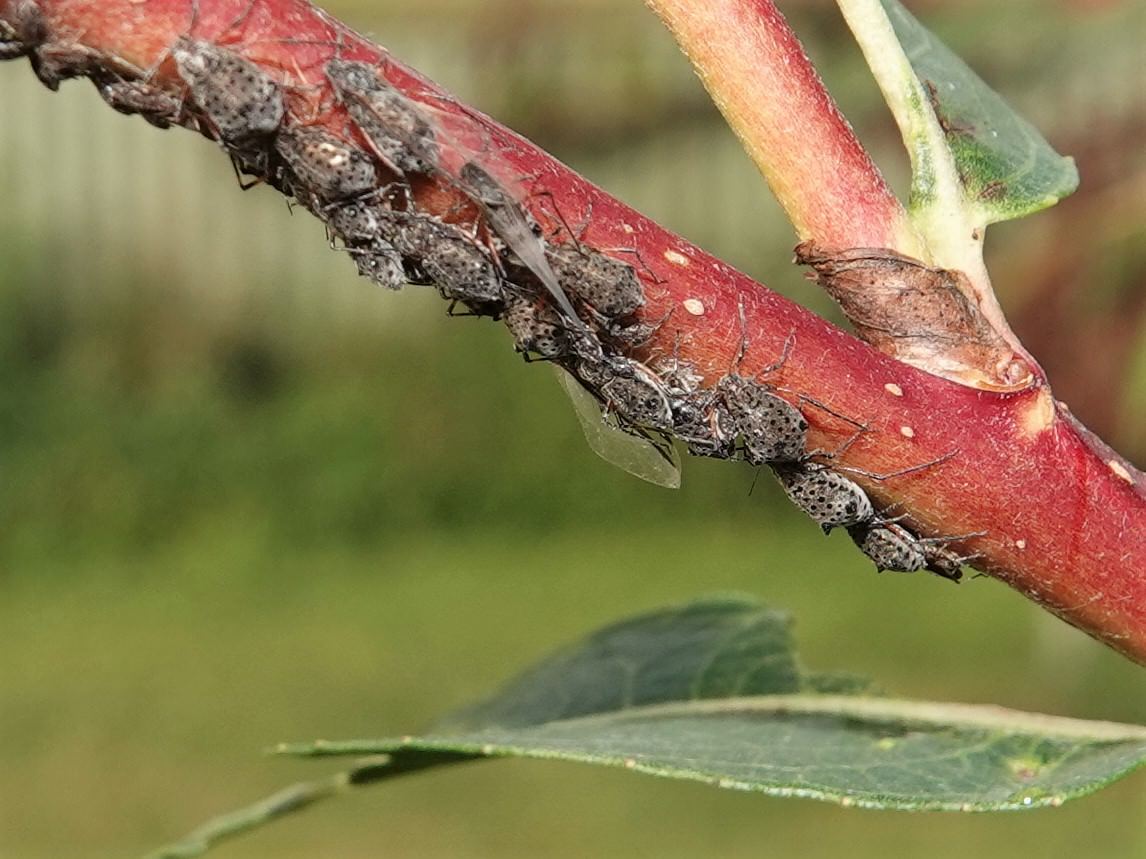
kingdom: Animalia
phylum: Arthropoda
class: Insecta
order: Hemiptera
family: Aphididae
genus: Tuberolachnus
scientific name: Tuberolachnus salignus
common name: Giant willow aphid
